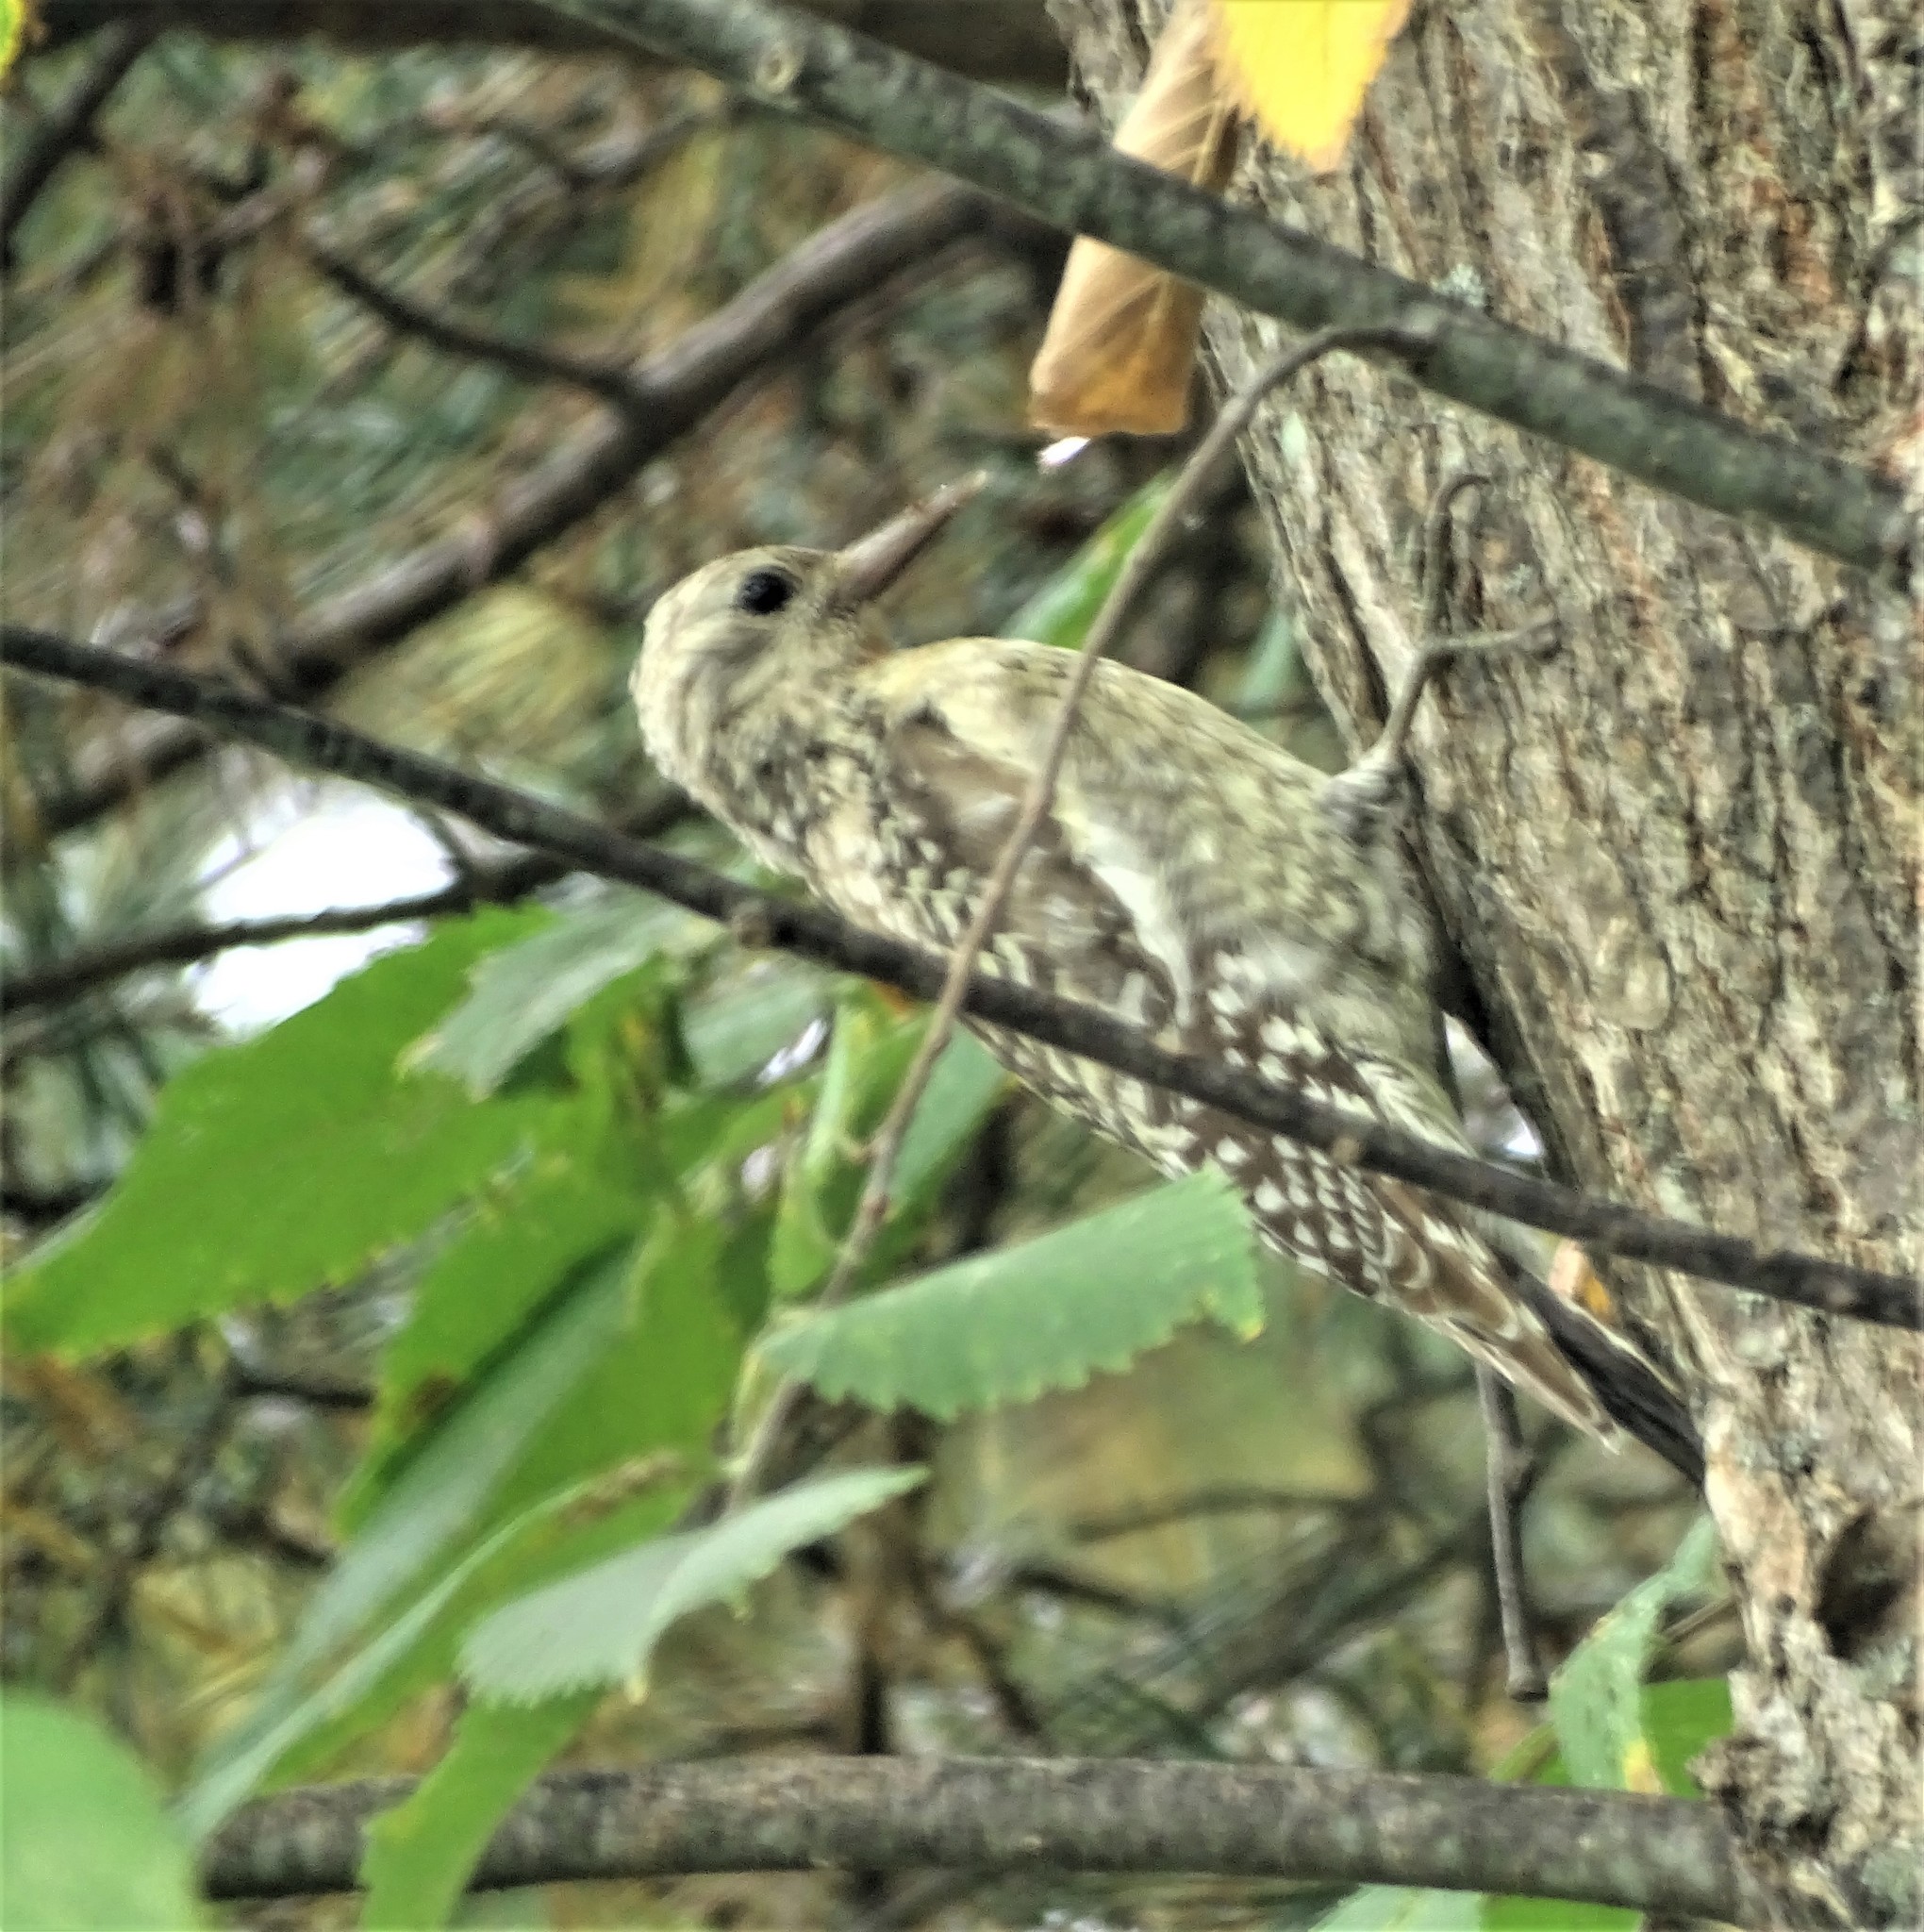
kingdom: Animalia
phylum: Chordata
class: Aves
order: Piciformes
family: Picidae
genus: Sphyrapicus
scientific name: Sphyrapicus varius
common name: Yellow-bellied sapsucker
